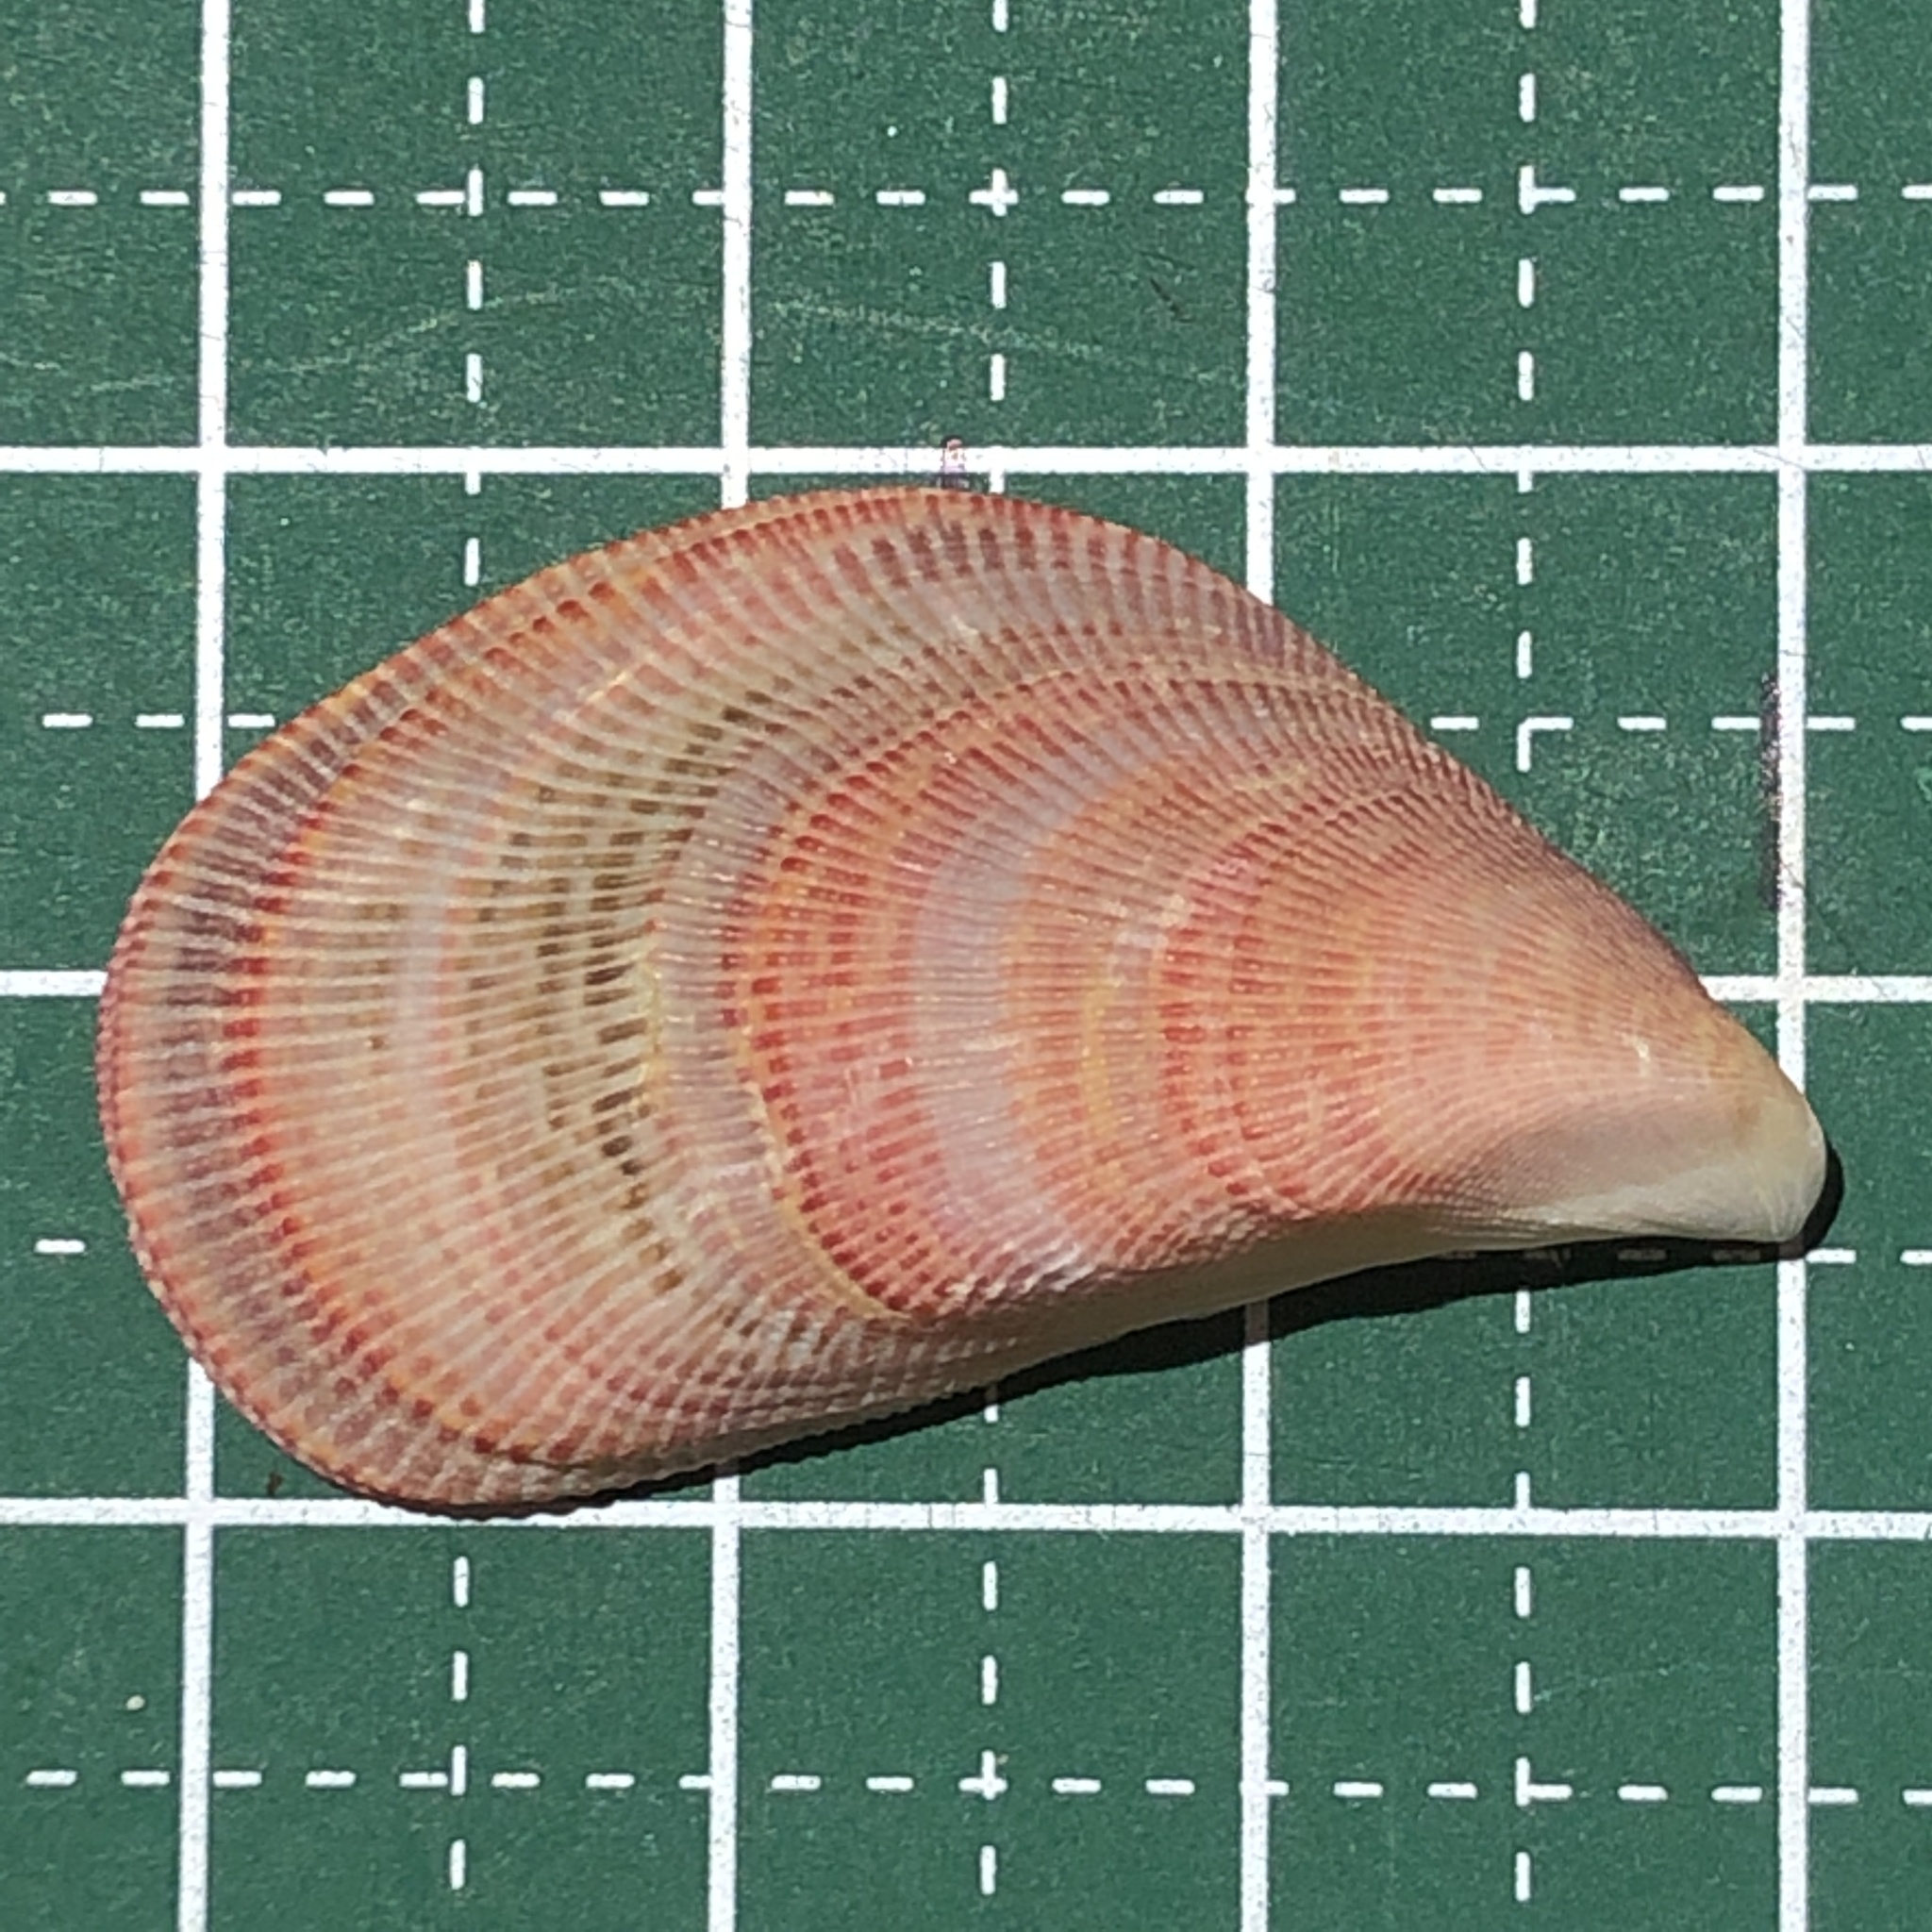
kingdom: Animalia
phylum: Mollusca
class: Bivalvia
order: Mytilida
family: Mytilidae
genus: Septifer
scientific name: Septifer bilocularis
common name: Ledge mussel
